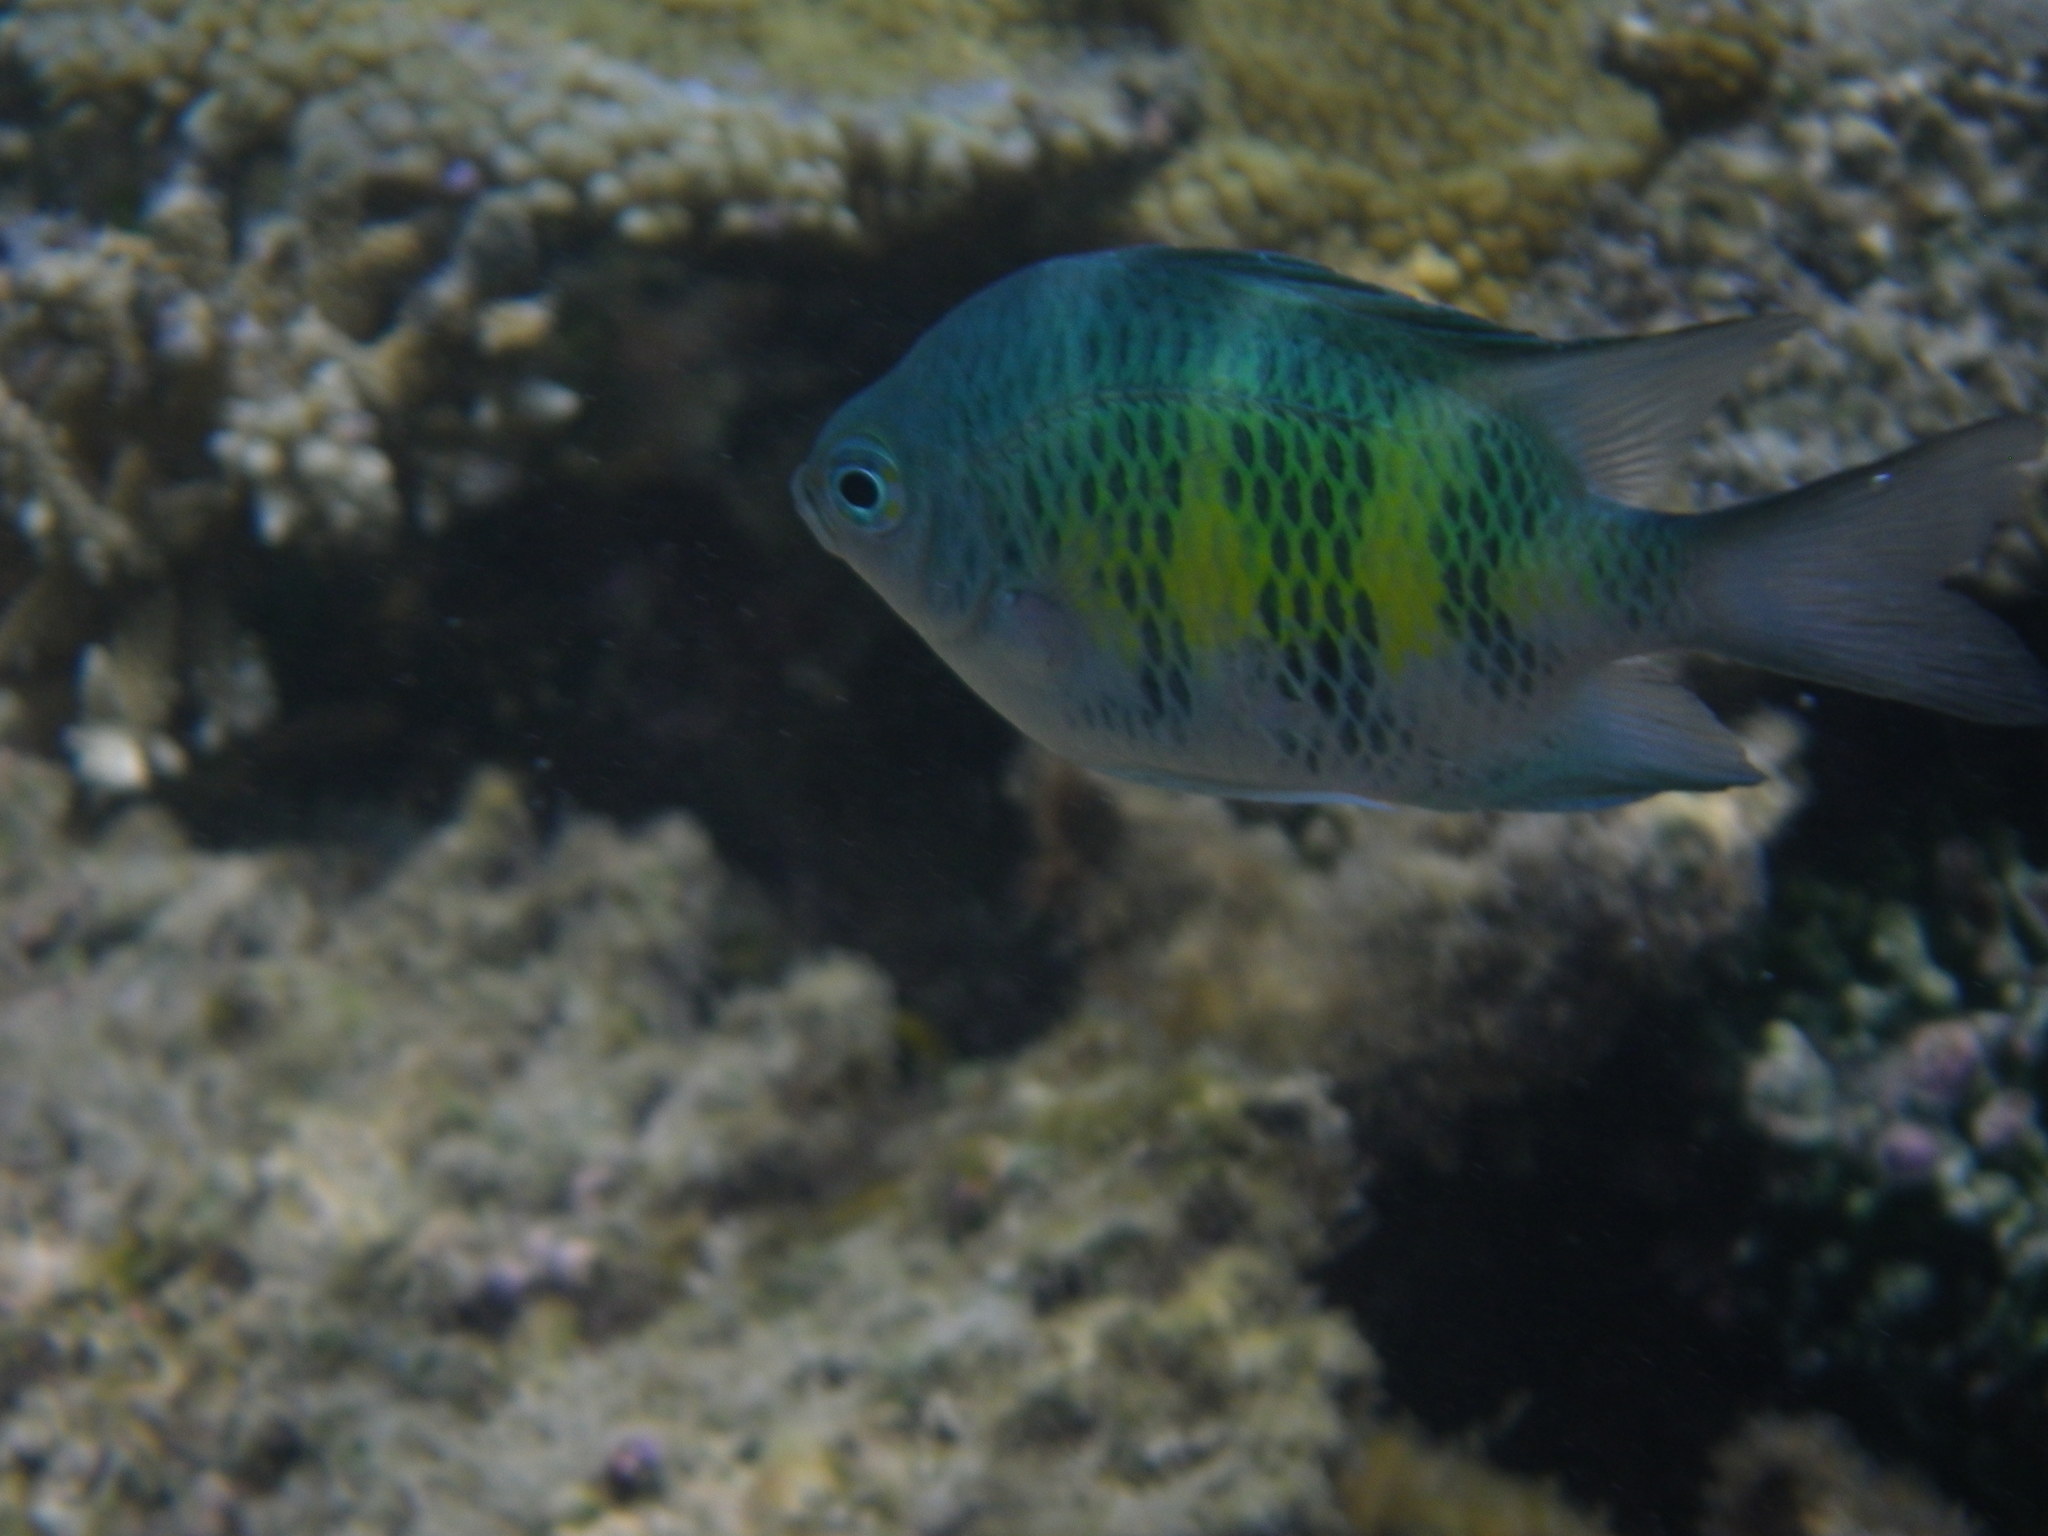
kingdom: Animalia
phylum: Chordata
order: Perciformes
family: Pomacentridae
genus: Amblyglyphidodon
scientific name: Amblyglyphidodon curacao
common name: Staghorn damsel
